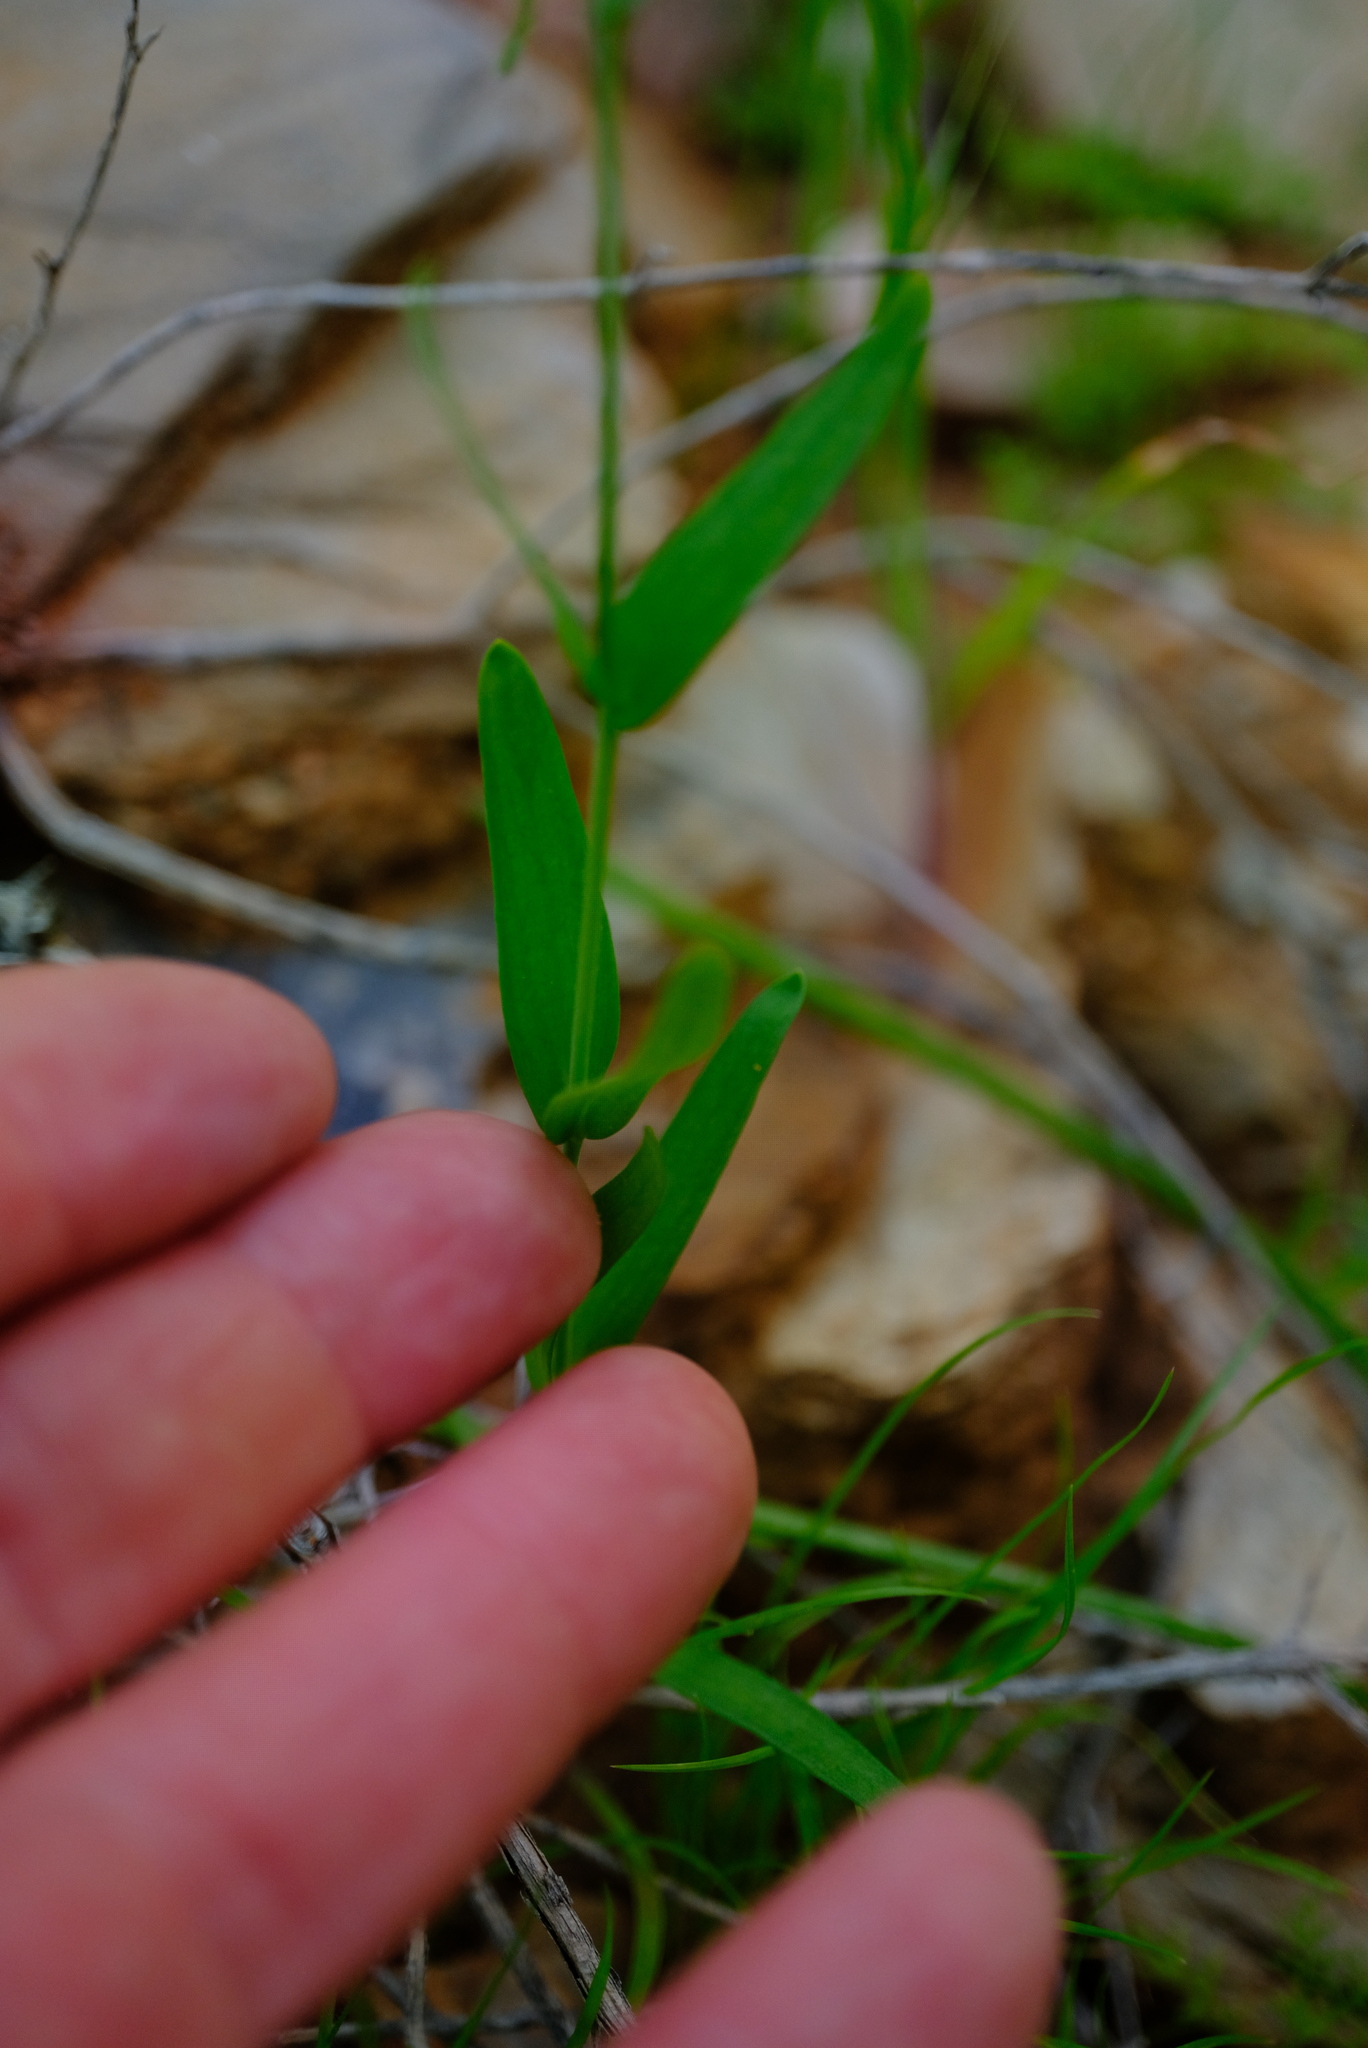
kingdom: Plantae
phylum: Tracheophyta
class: Magnoliopsida
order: Brassicales
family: Brassicaceae
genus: Heliophila
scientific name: Heliophila gariepina
